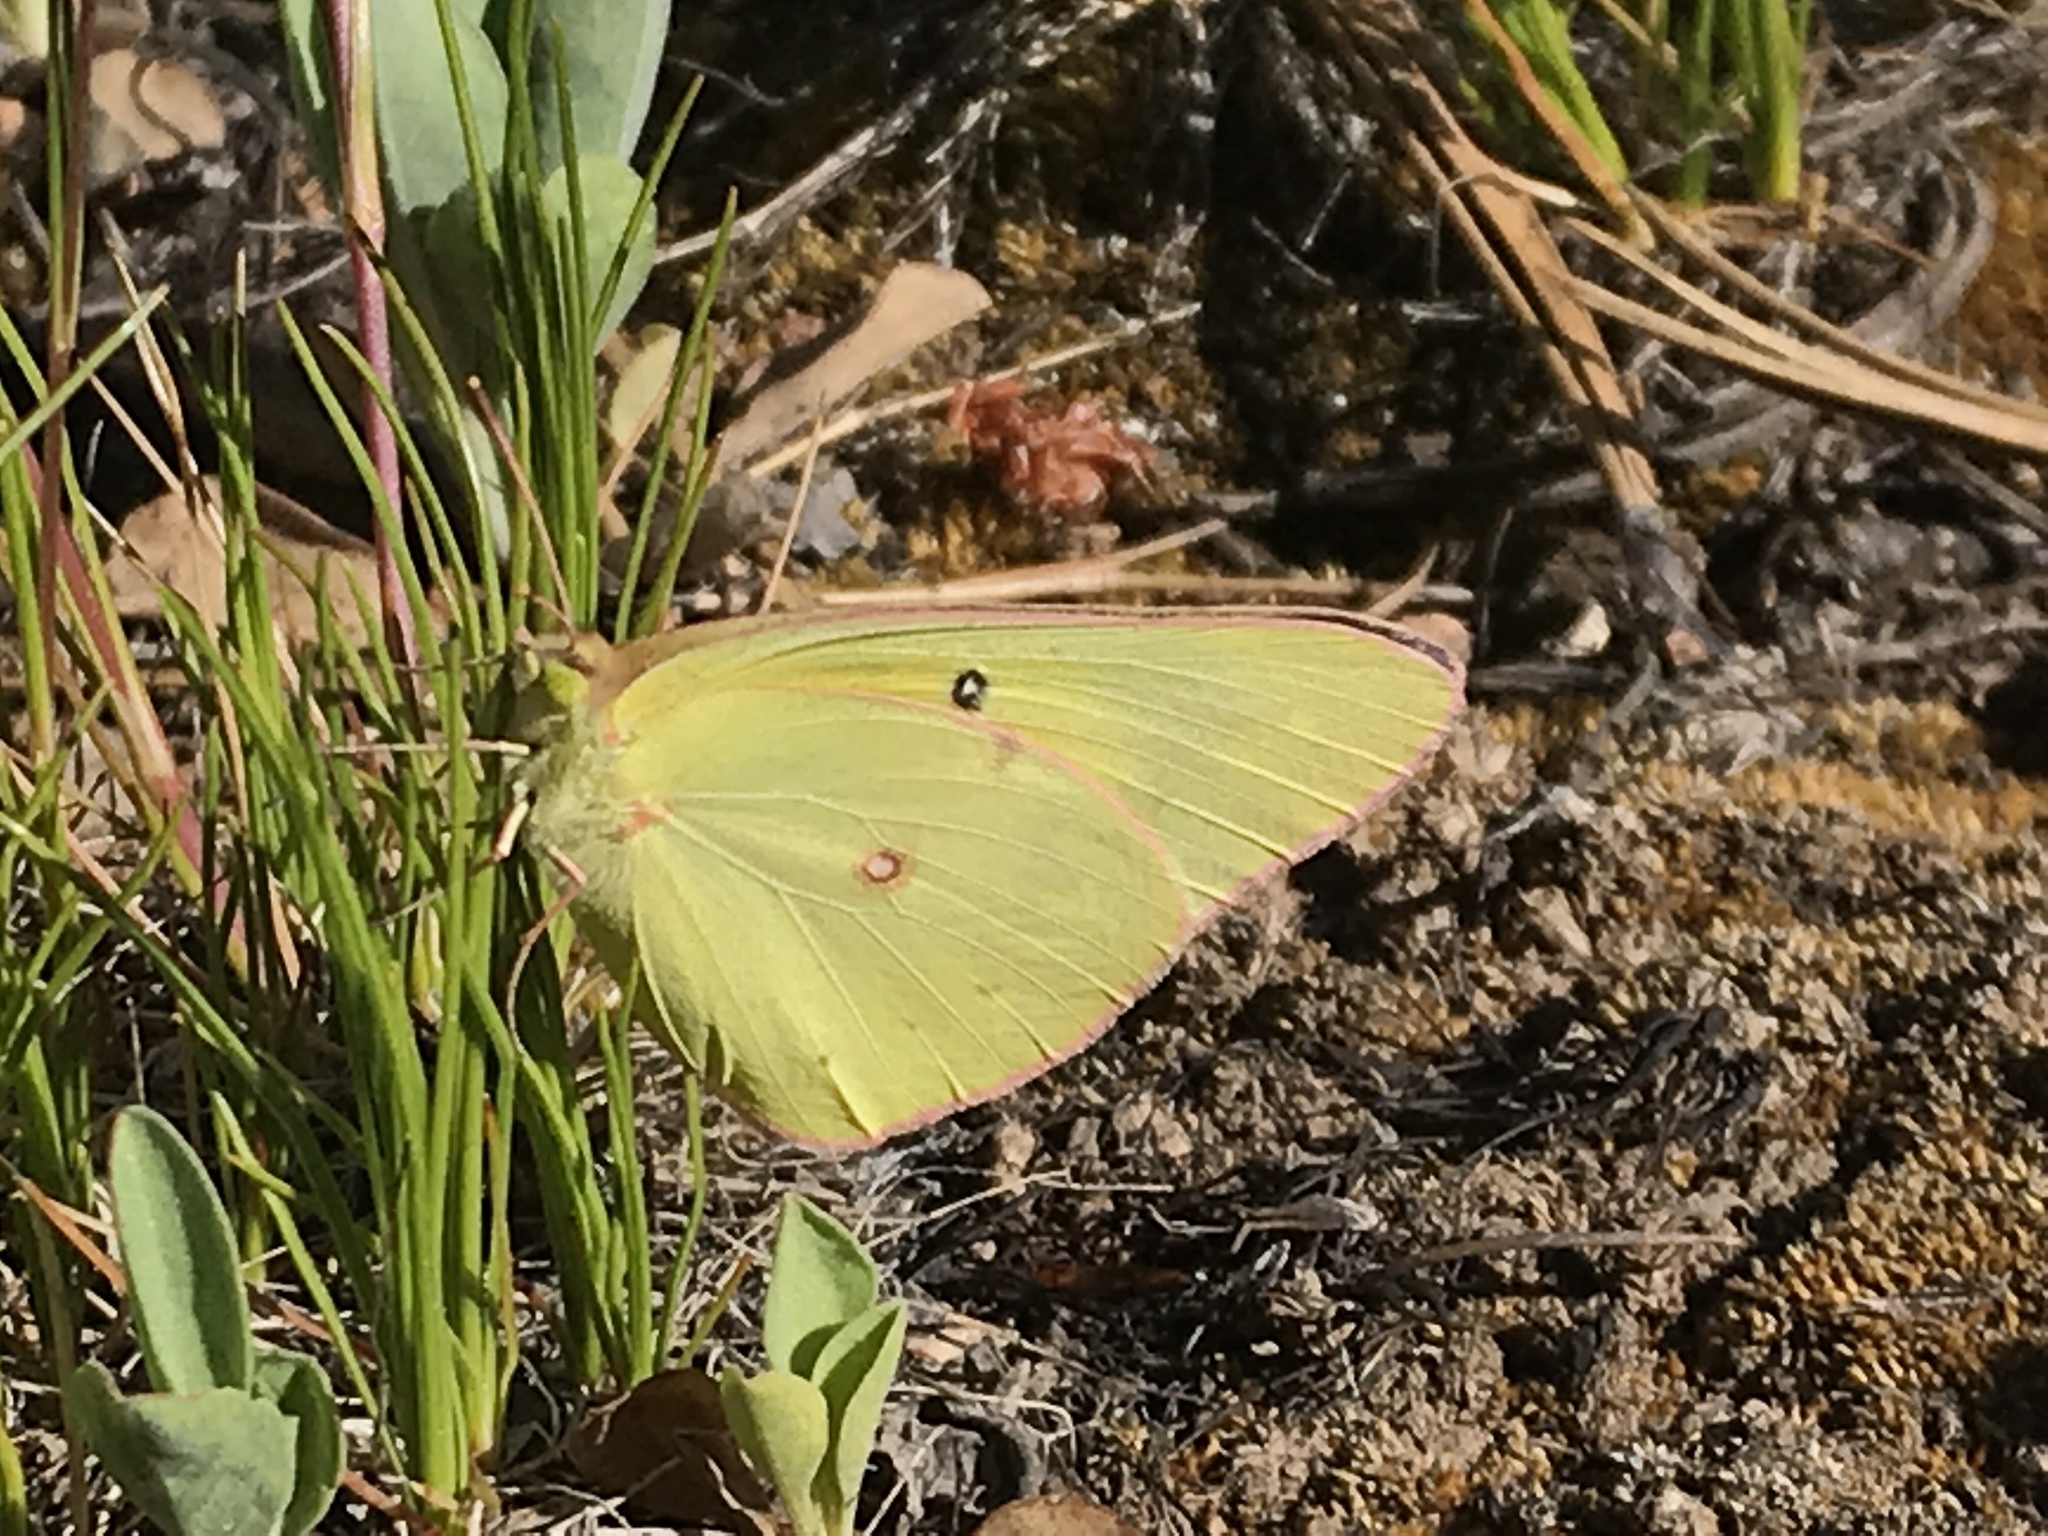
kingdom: Animalia
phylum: Arthropoda
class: Insecta
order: Lepidoptera
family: Pieridae
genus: Colias
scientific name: Colias eurytheme
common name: Alfalfa butterfly
